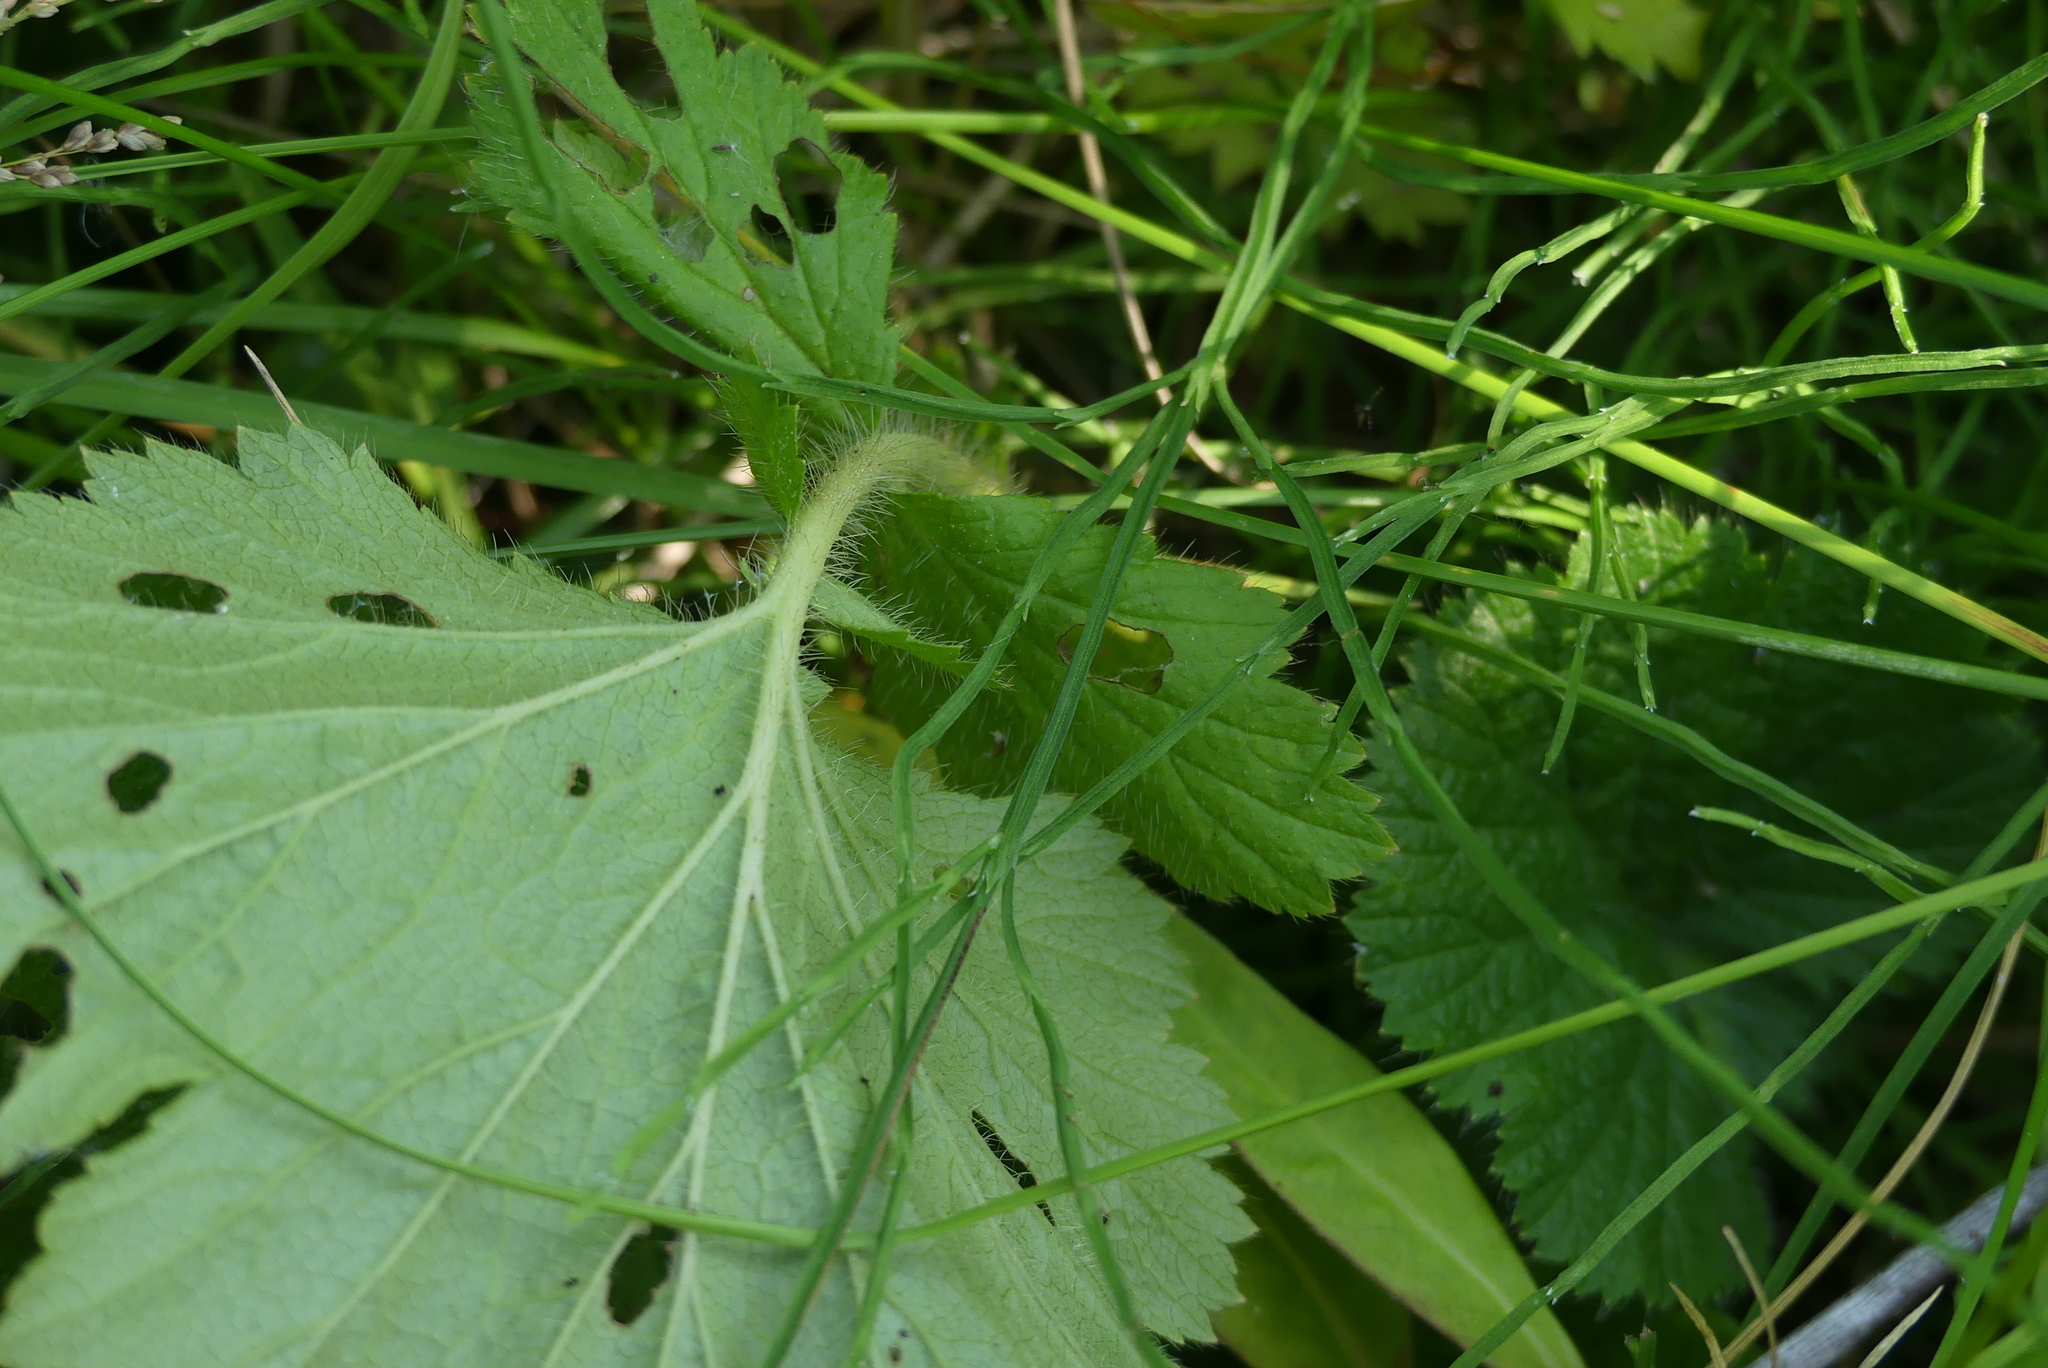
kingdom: Plantae
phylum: Tracheophyta
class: Magnoliopsida
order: Rosales
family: Rosaceae
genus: Geum
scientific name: Geum macrophyllum
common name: Large-leaved avens
